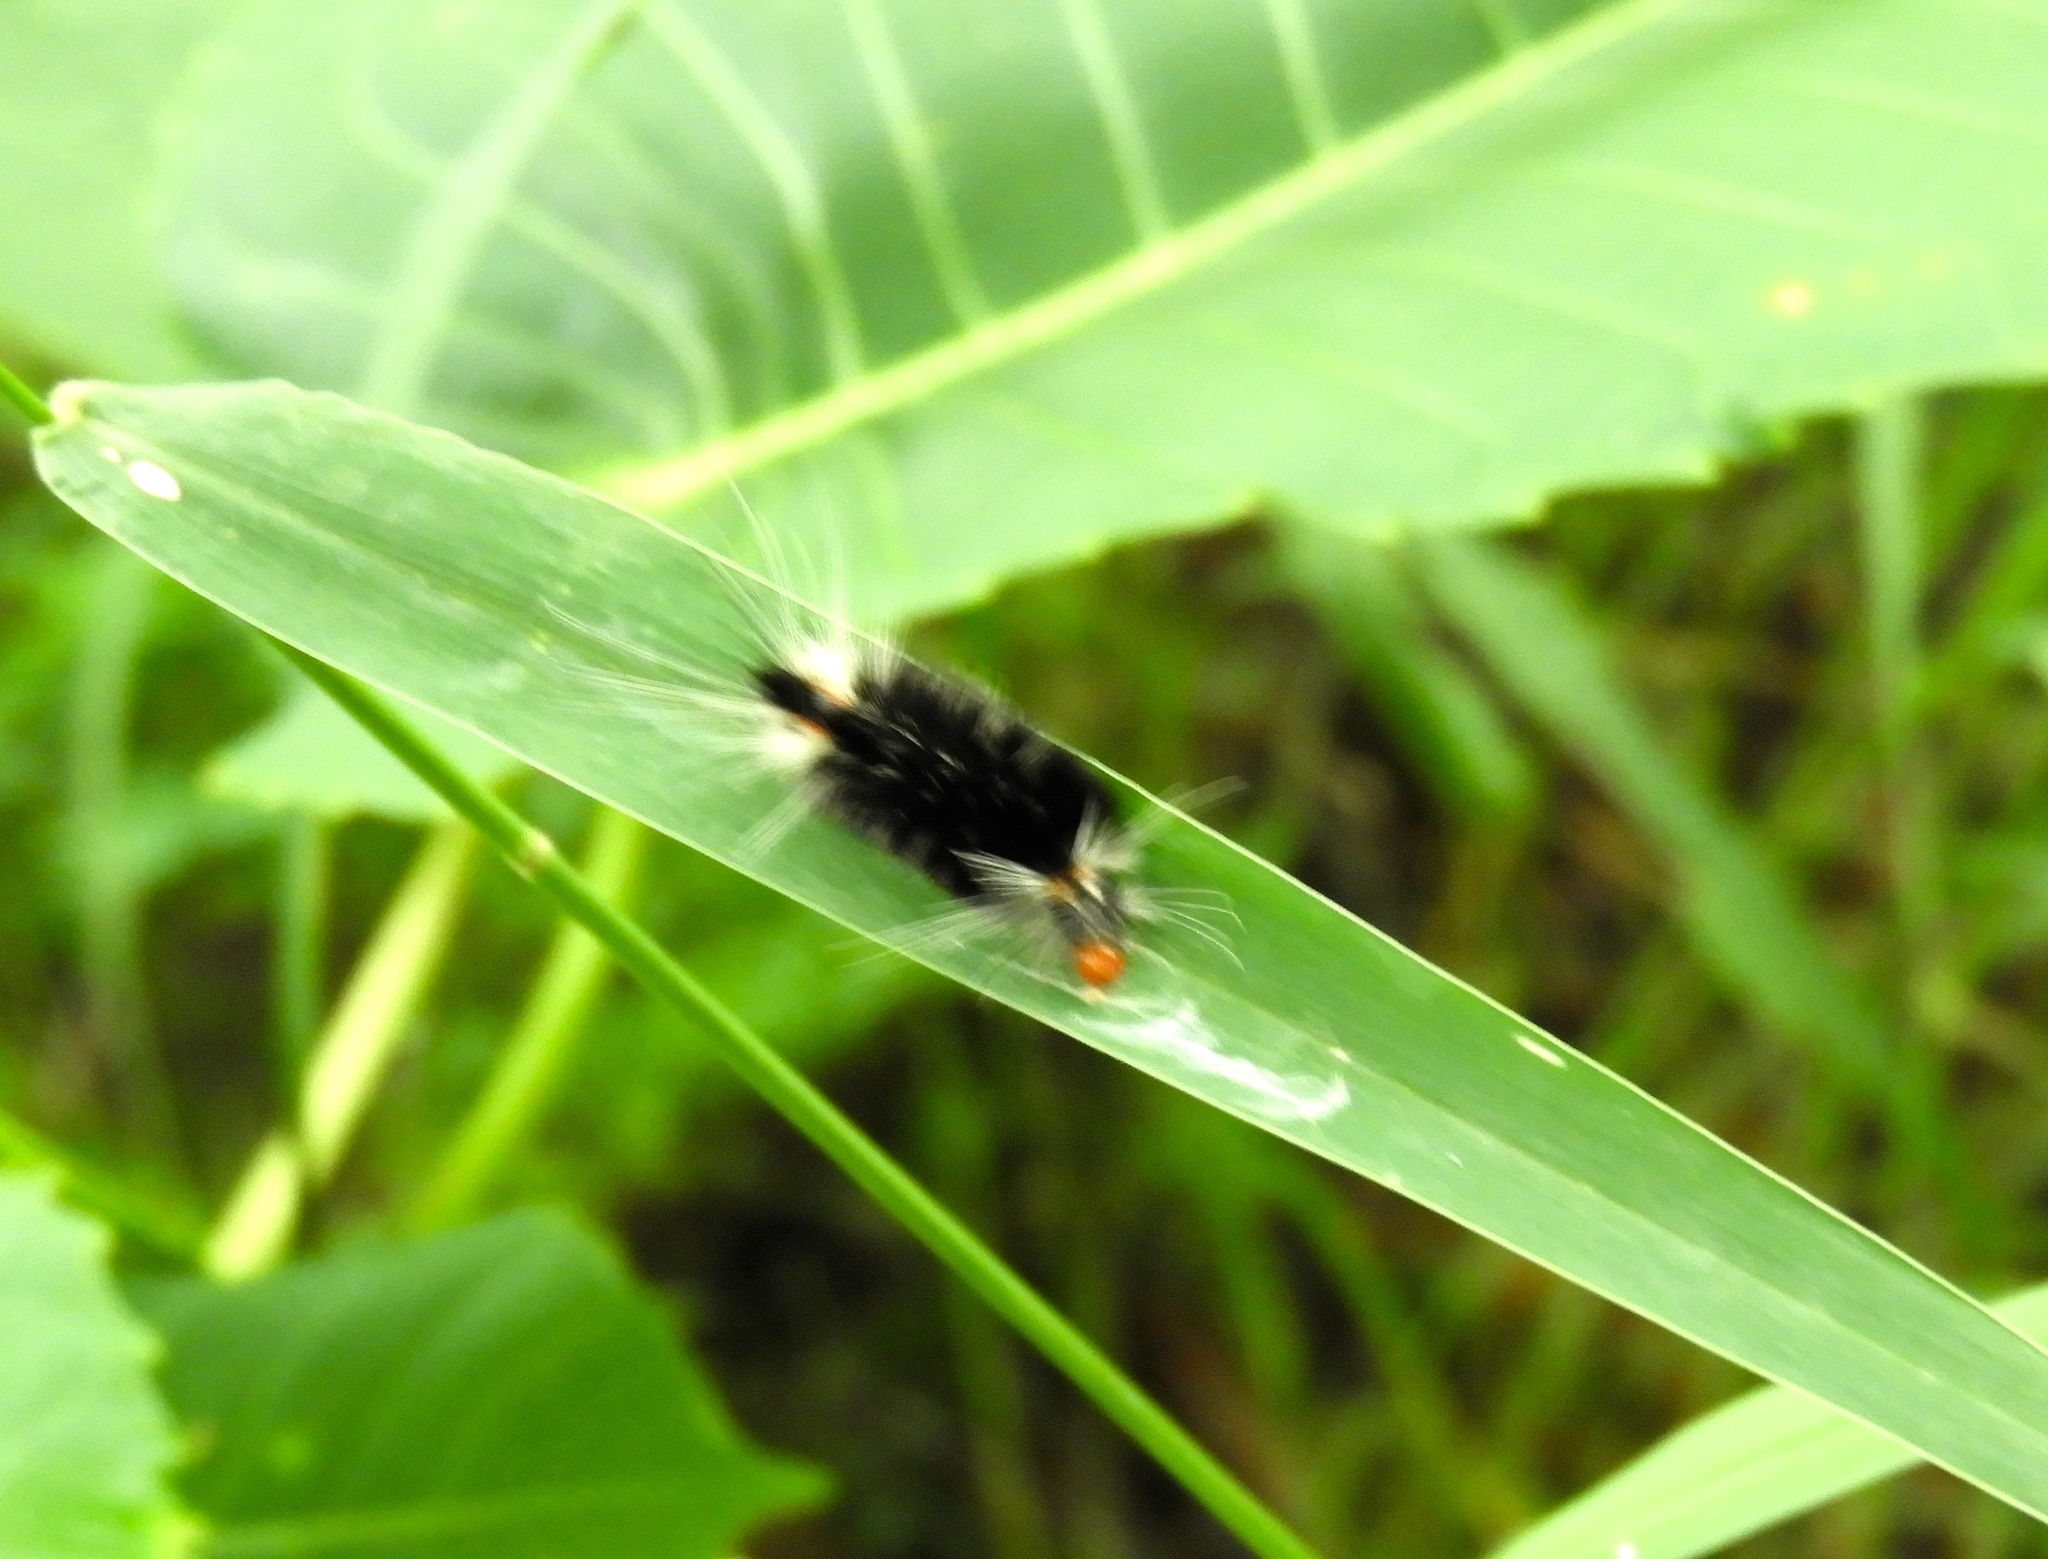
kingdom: Animalia
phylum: Arthropoda
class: Insecta
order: Lepidoptera
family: Erebidae
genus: Eucereon
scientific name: Eucereon
